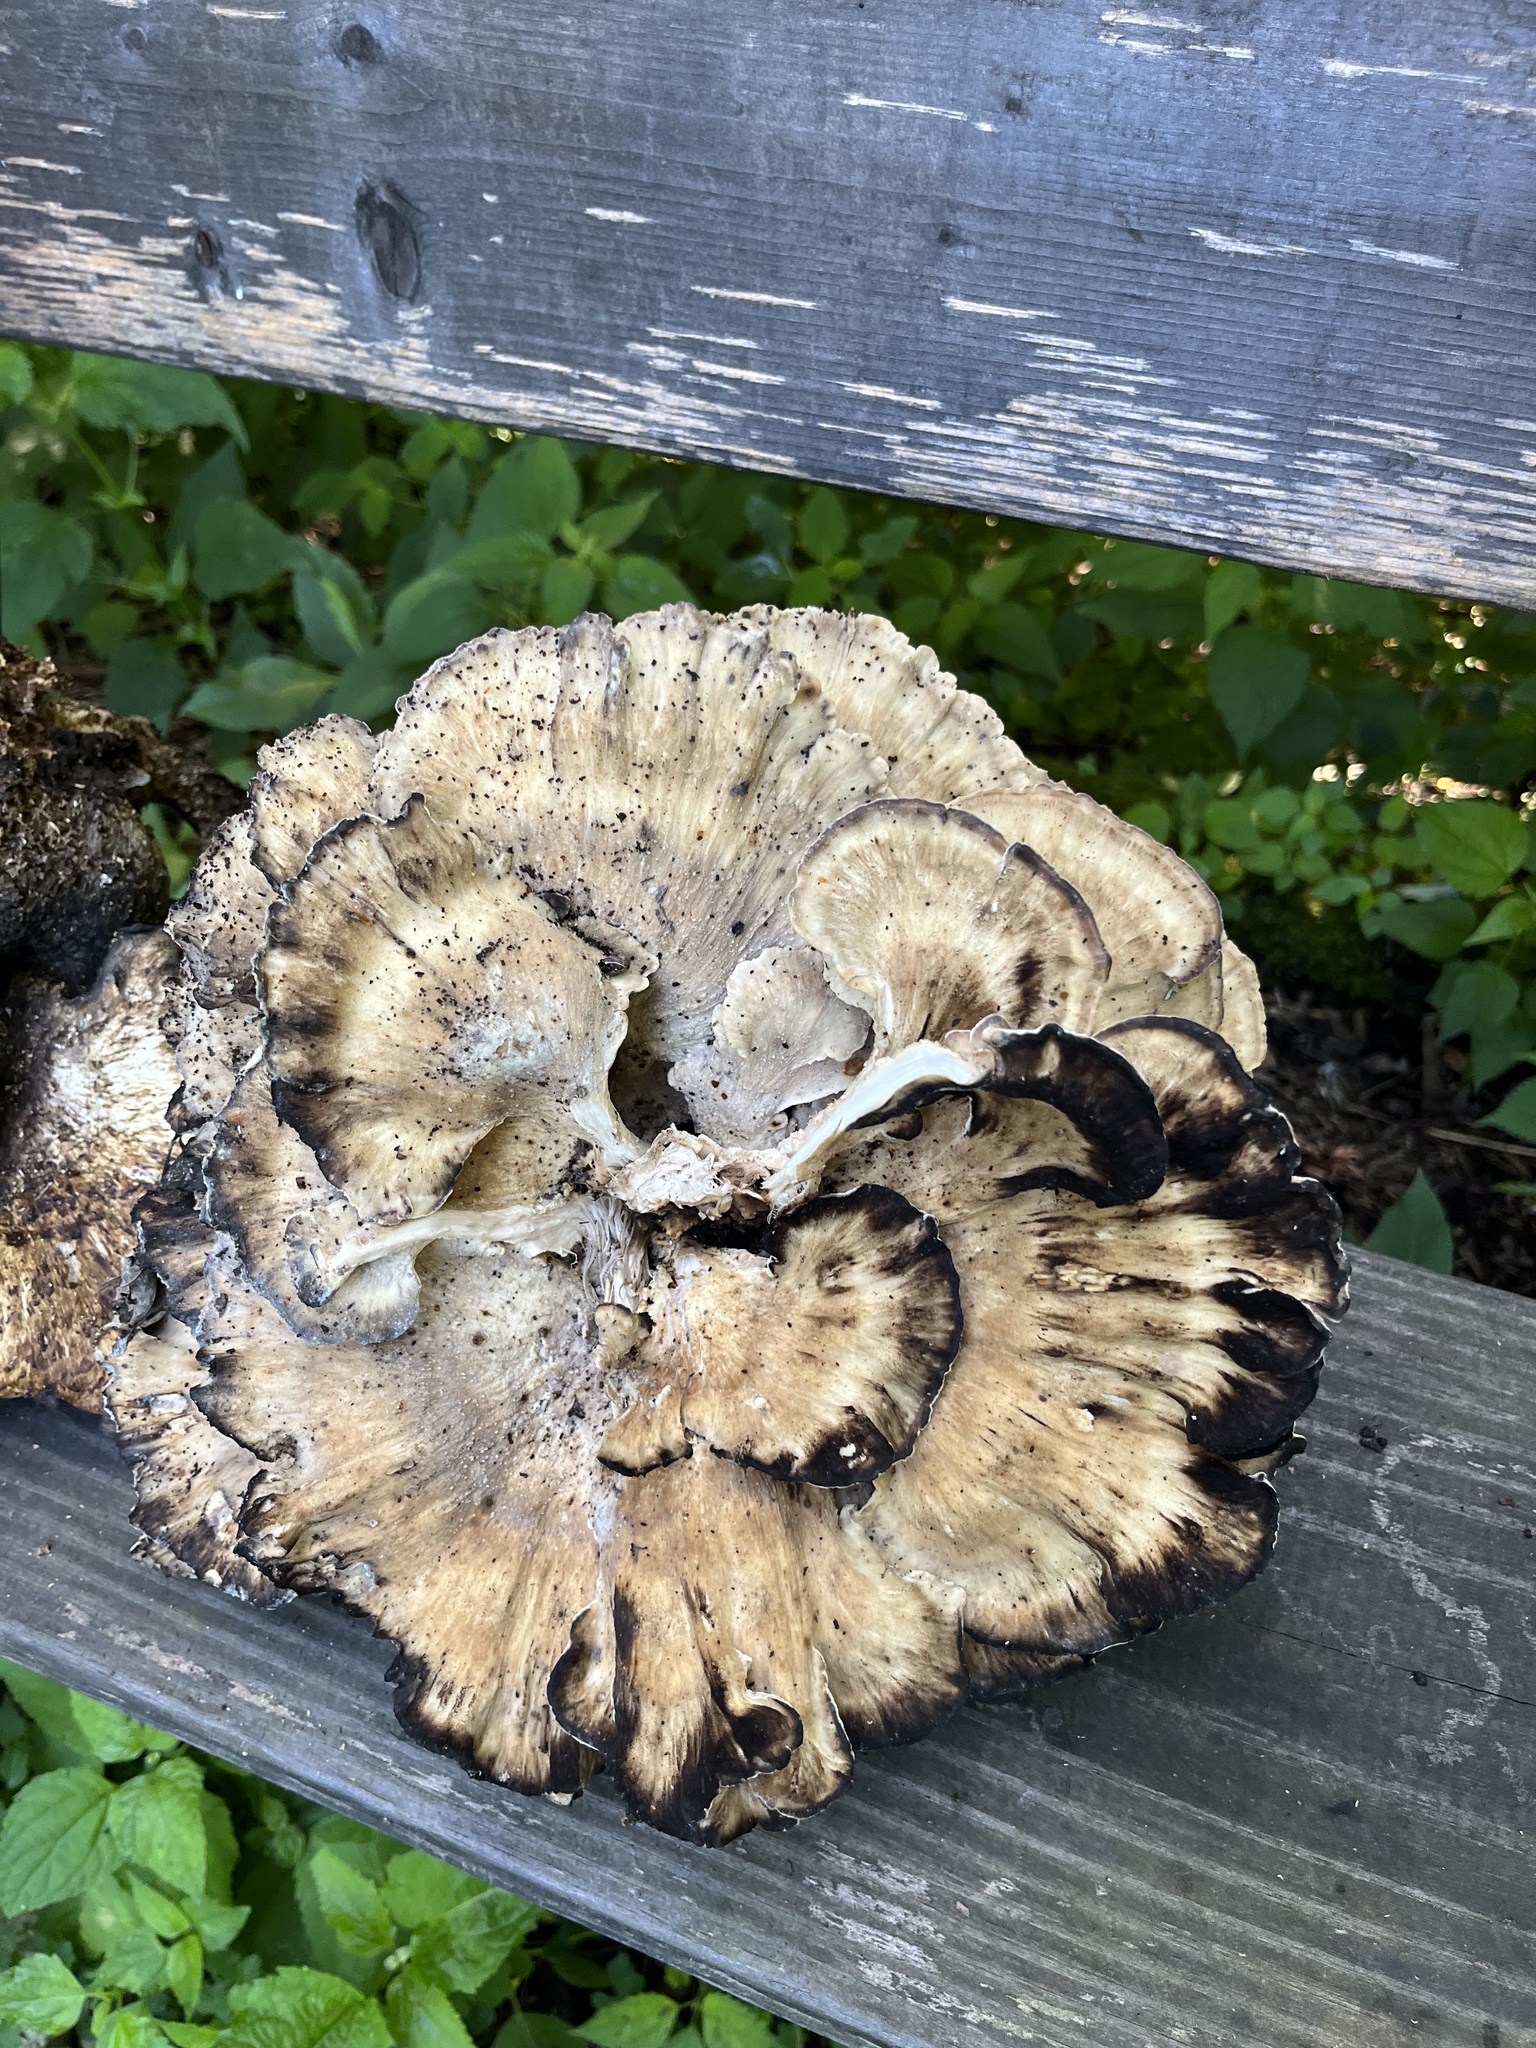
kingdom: Fungi
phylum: Basidiomycota
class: Agaricomycetes
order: Polyporales
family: Meripilaceae
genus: Meripilus
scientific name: Meripilus sumstinei
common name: Black-staining polypore
